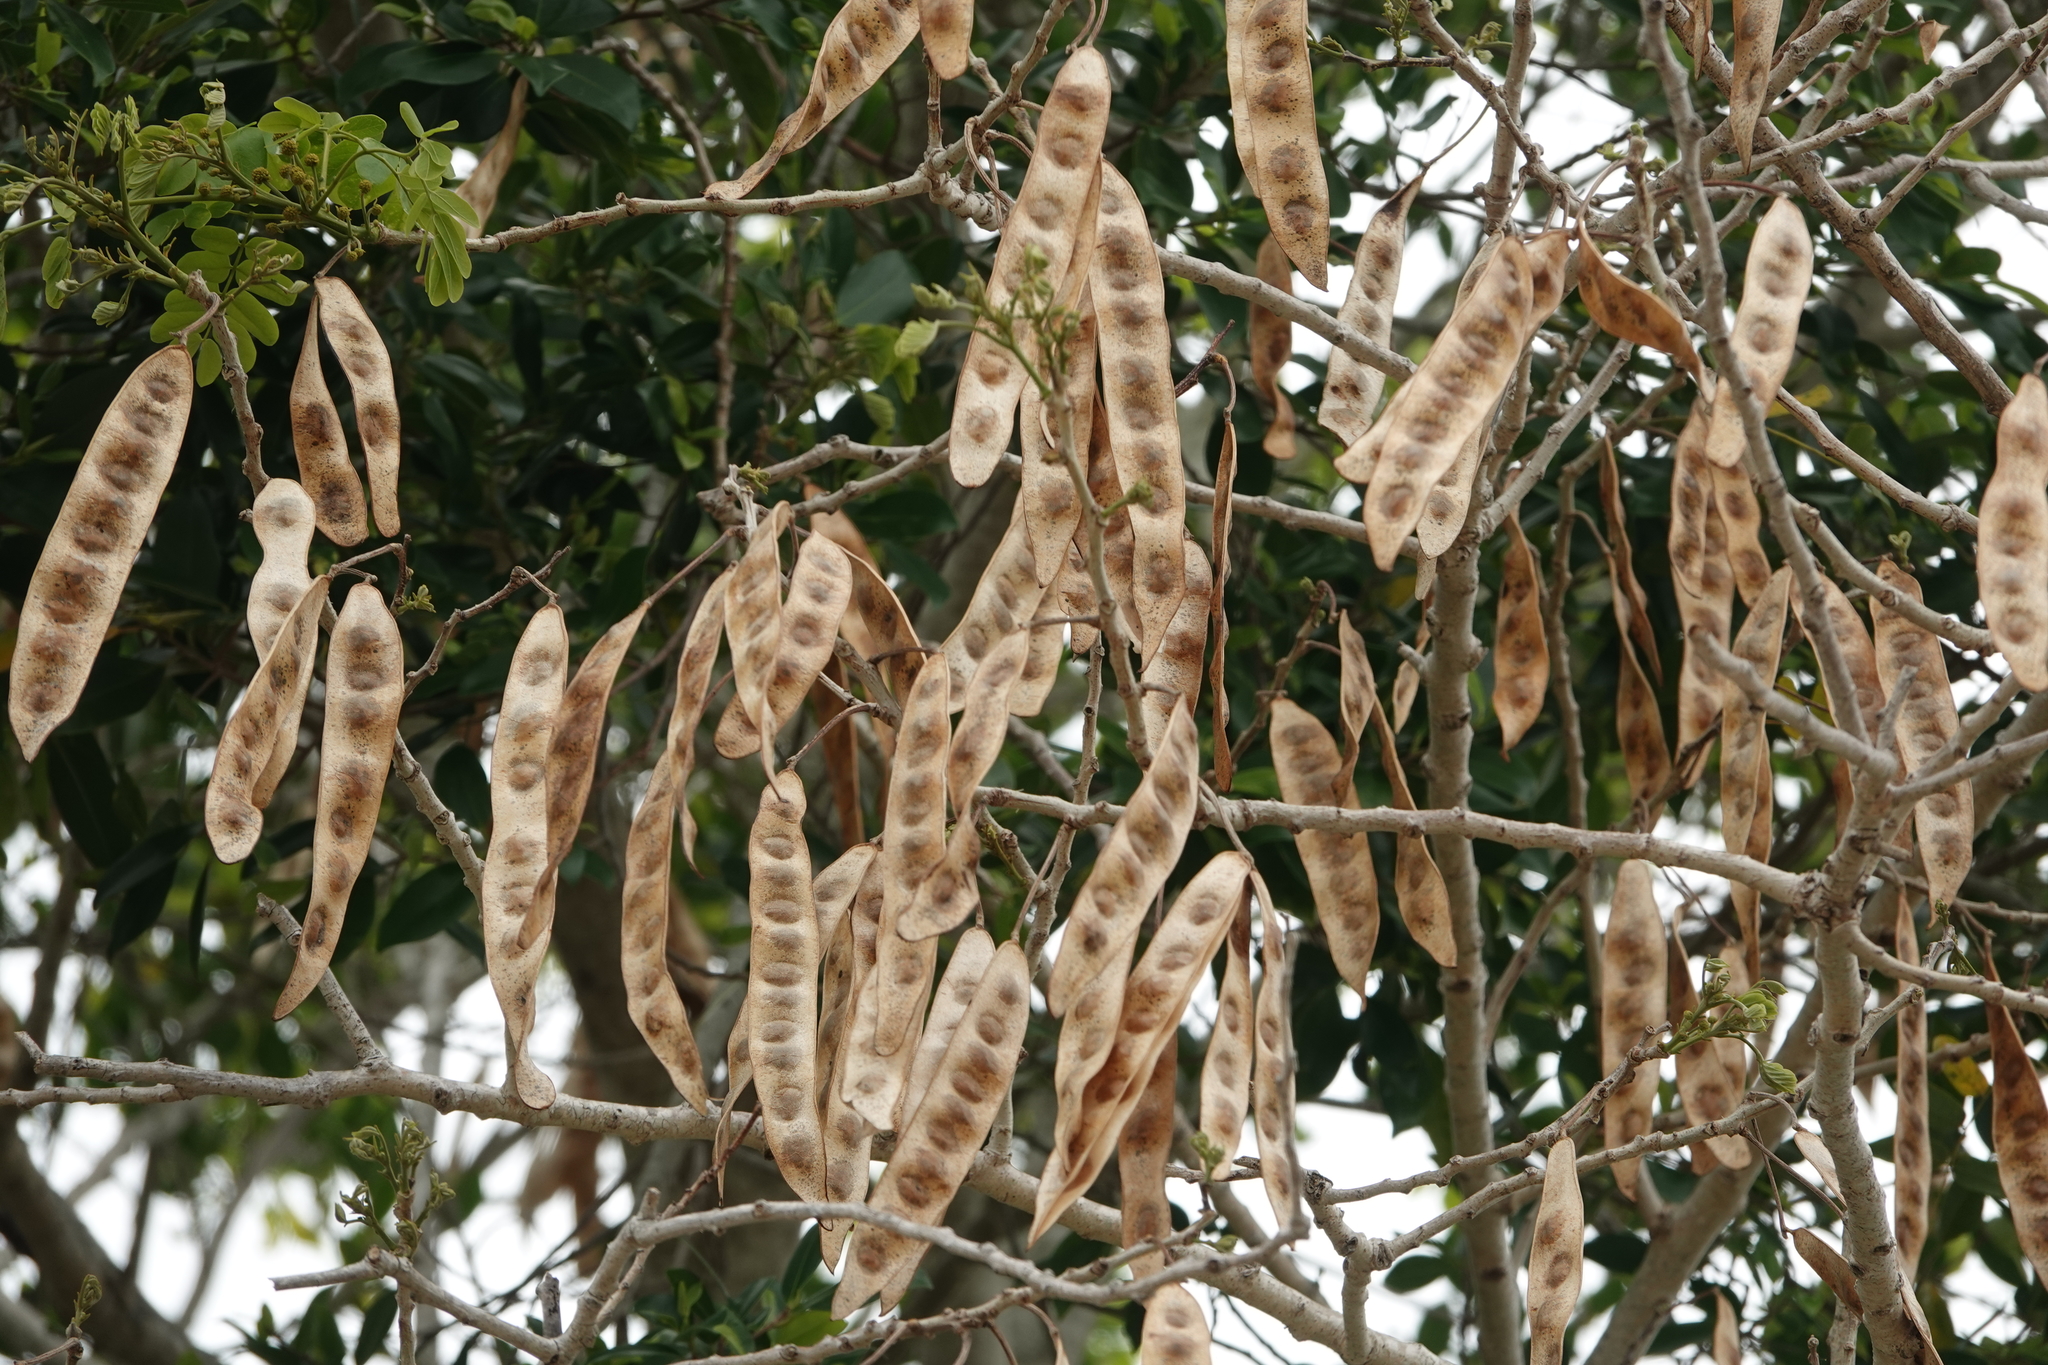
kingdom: Plantae
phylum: Tracheophyta
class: Magnoliopsida
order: Fabales
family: Fabaceae
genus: Albizia
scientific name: Albizia lebbeck
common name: Woman's tongue
